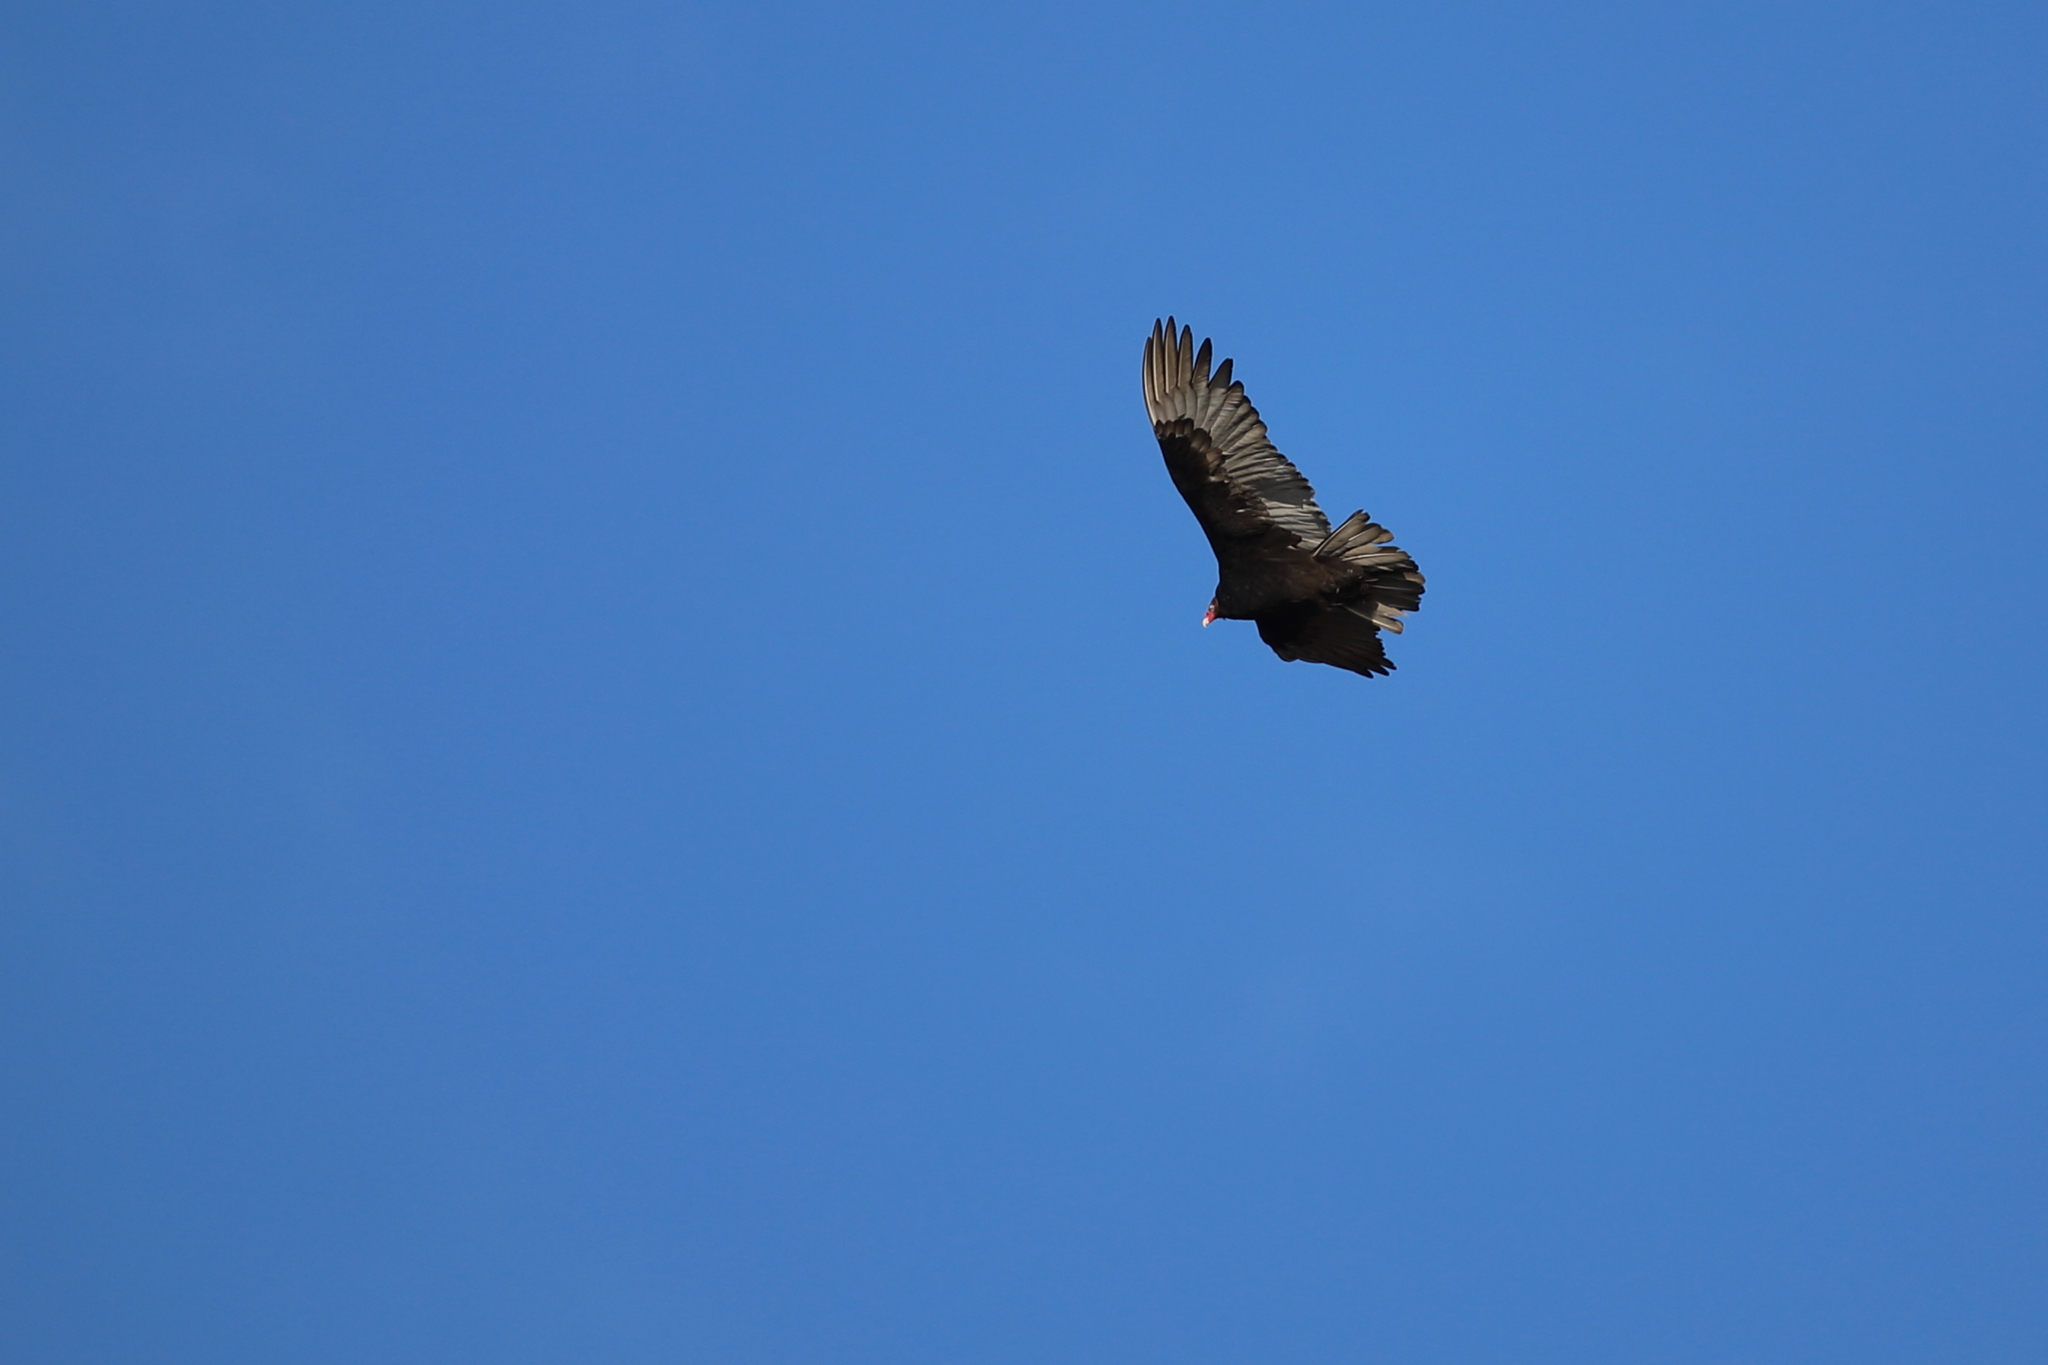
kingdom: Animalia
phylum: Chordata
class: Aves
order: Accipitriformes
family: Cathartidae
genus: Cathartes
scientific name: Cathartes aura
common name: Turkey vulture
